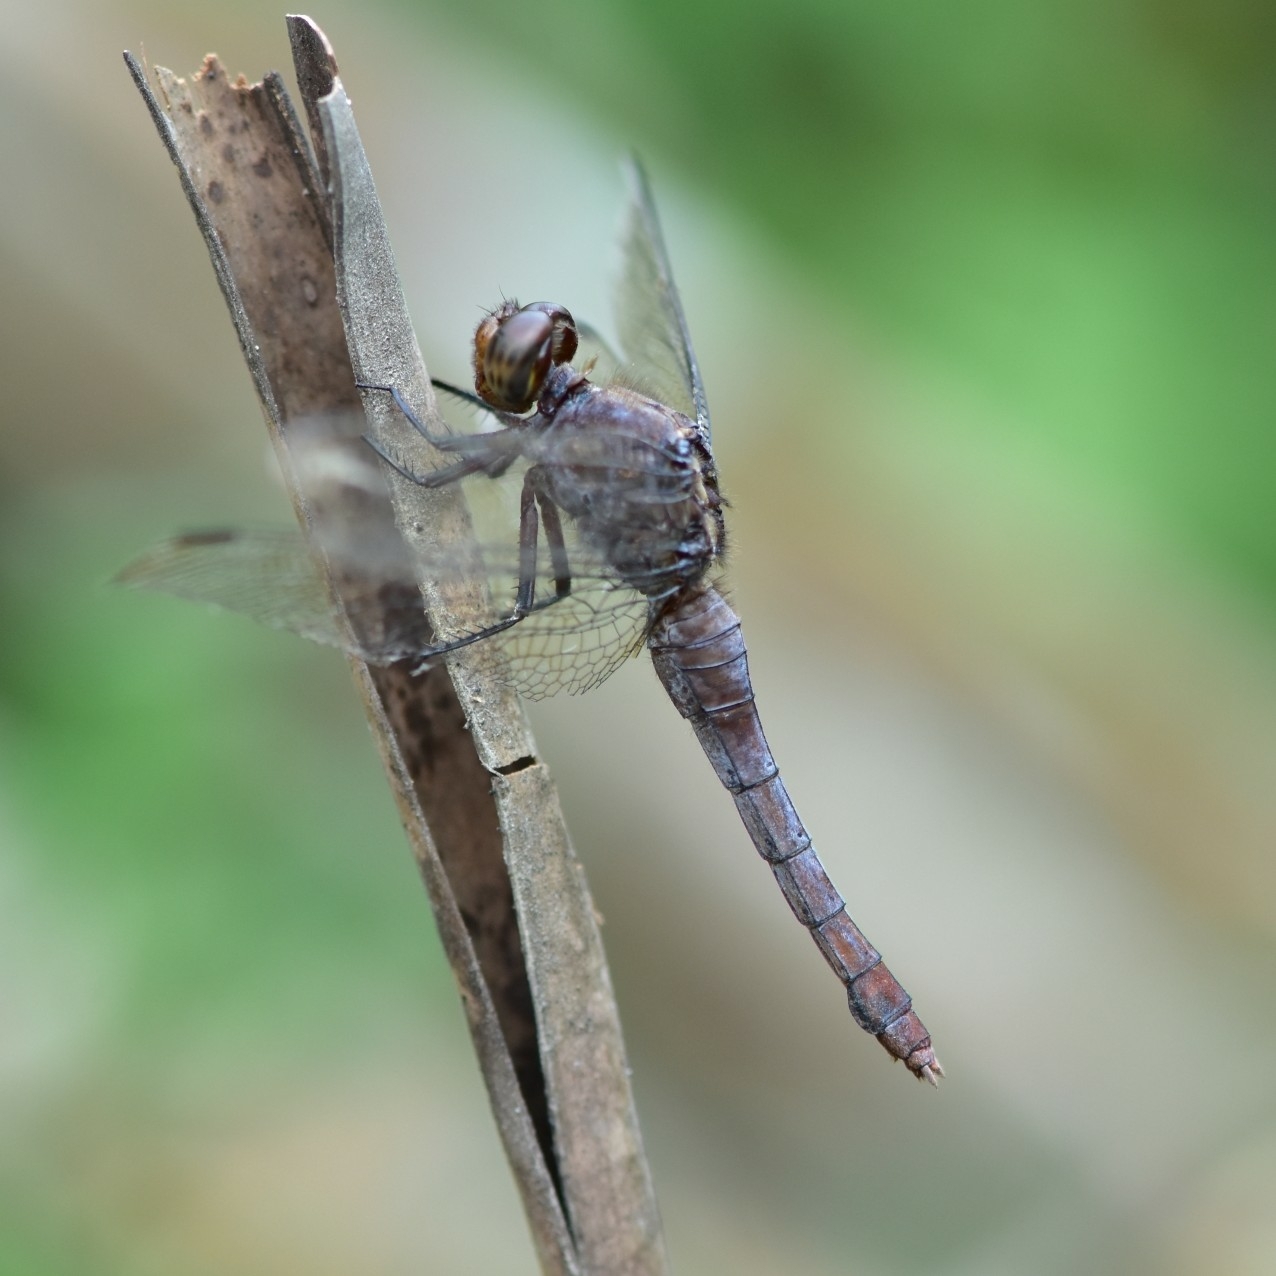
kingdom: Animalia
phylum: Arthropoda
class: Insecta
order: Odonata
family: Libellulidae
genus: Orthetrum
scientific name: Orthetrum pruinosum
